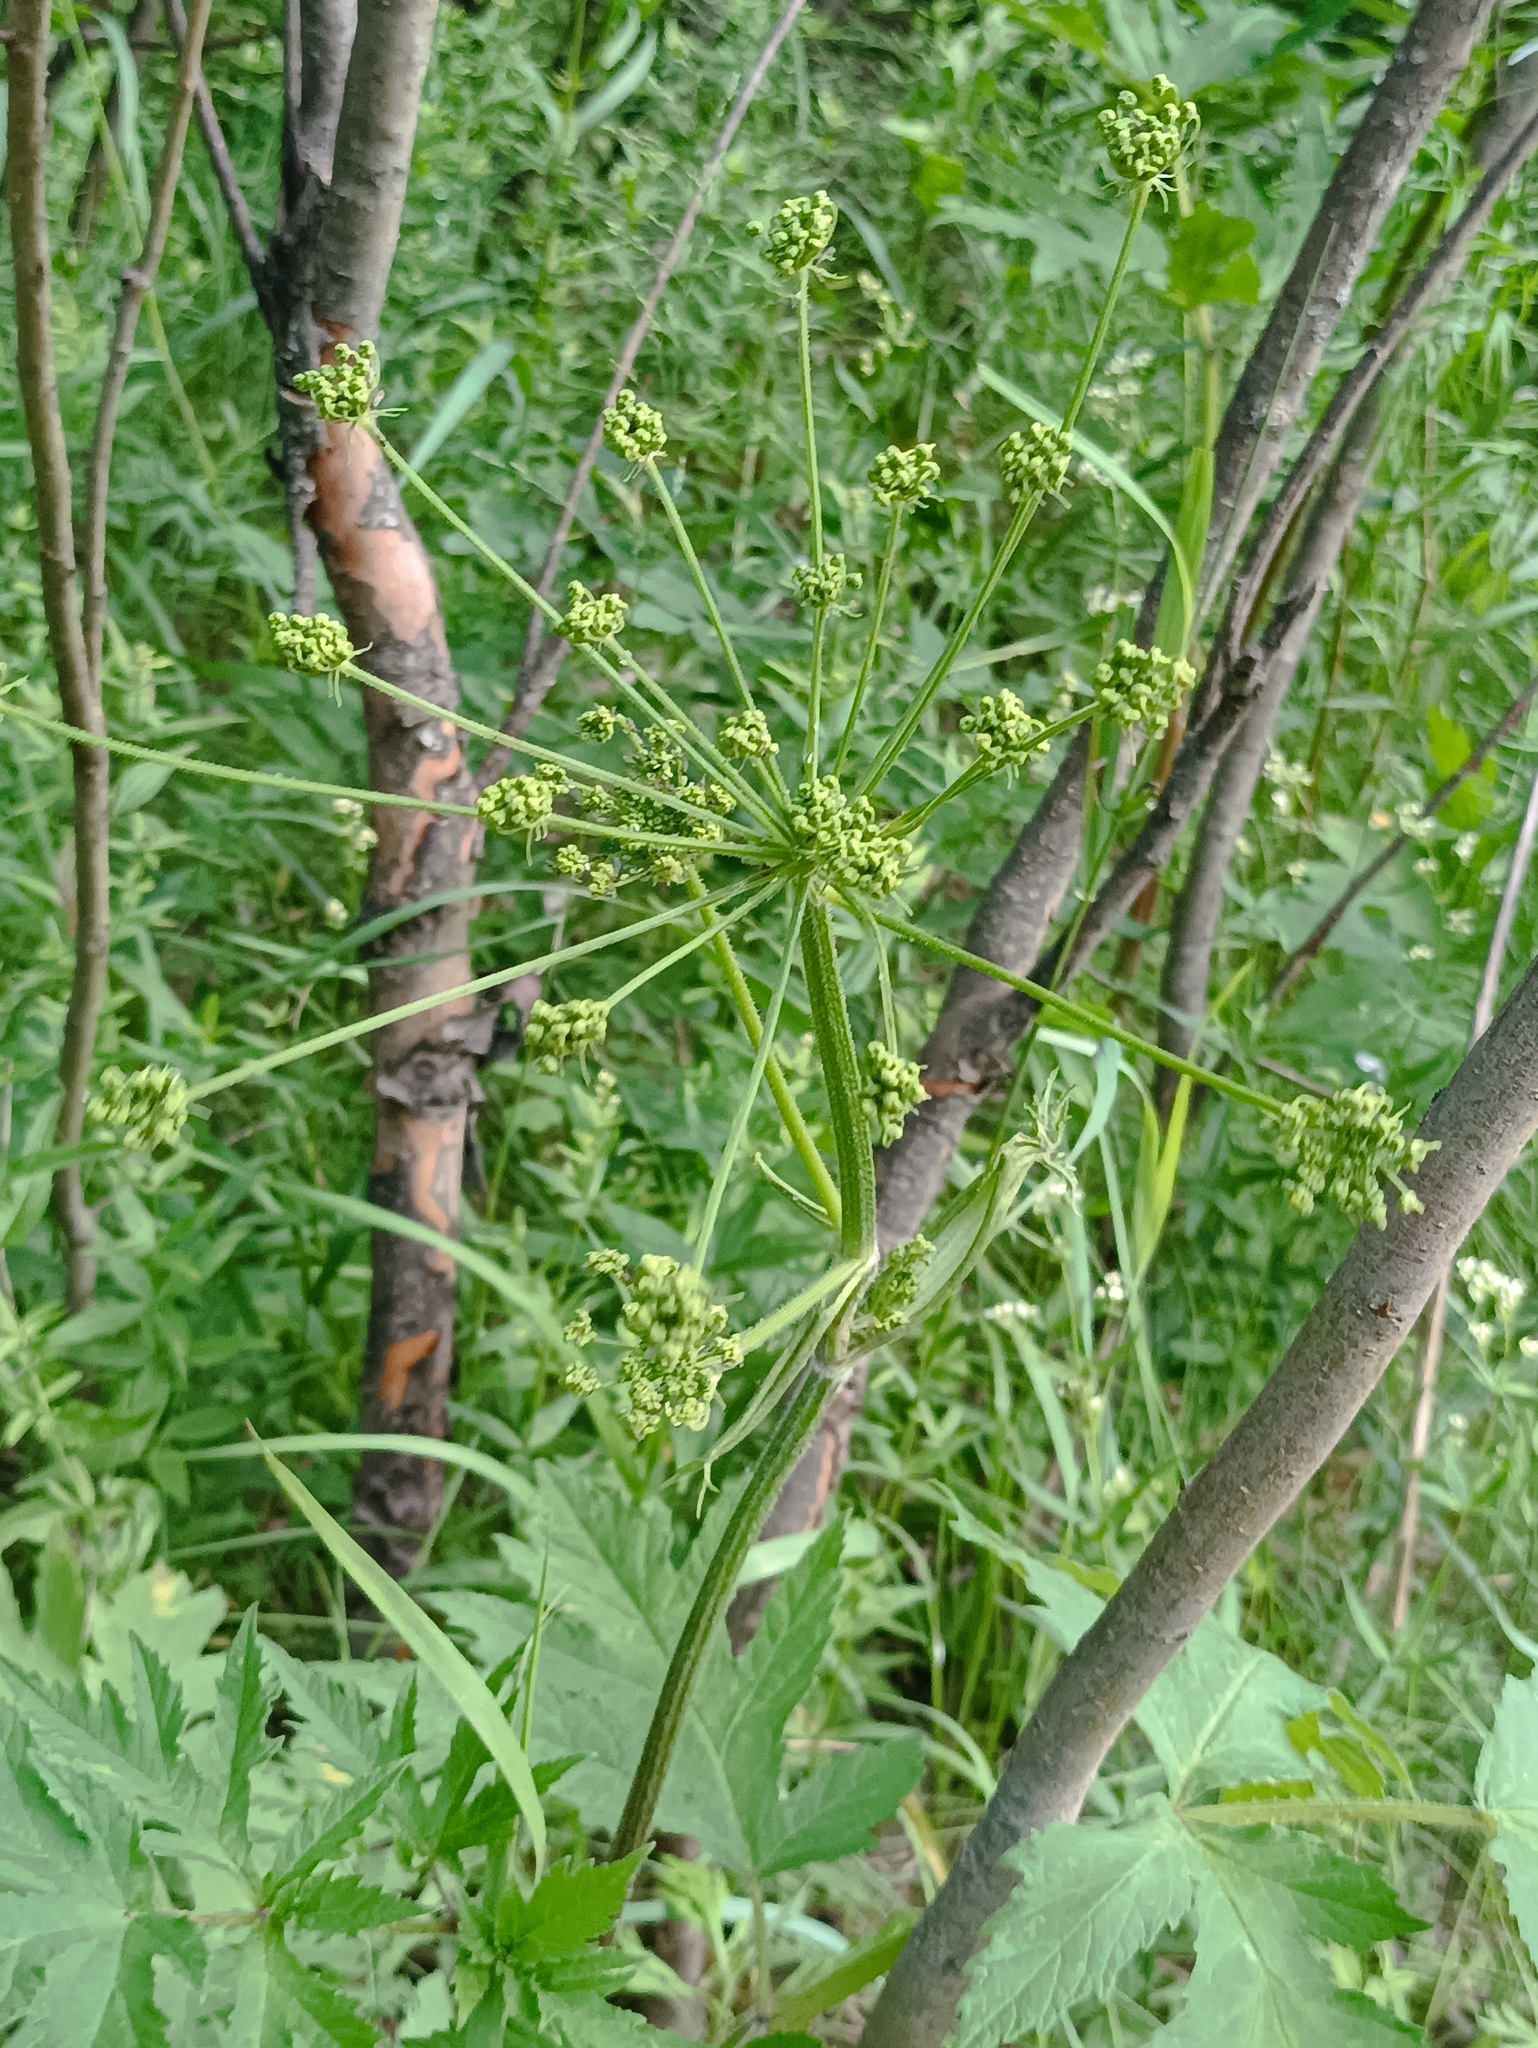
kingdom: Plantae
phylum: Tracheophyta
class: Magnoliopsida
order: Apiales
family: Apiaceae
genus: Heracleum
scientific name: Heracleum sphondylium
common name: Hogweed
